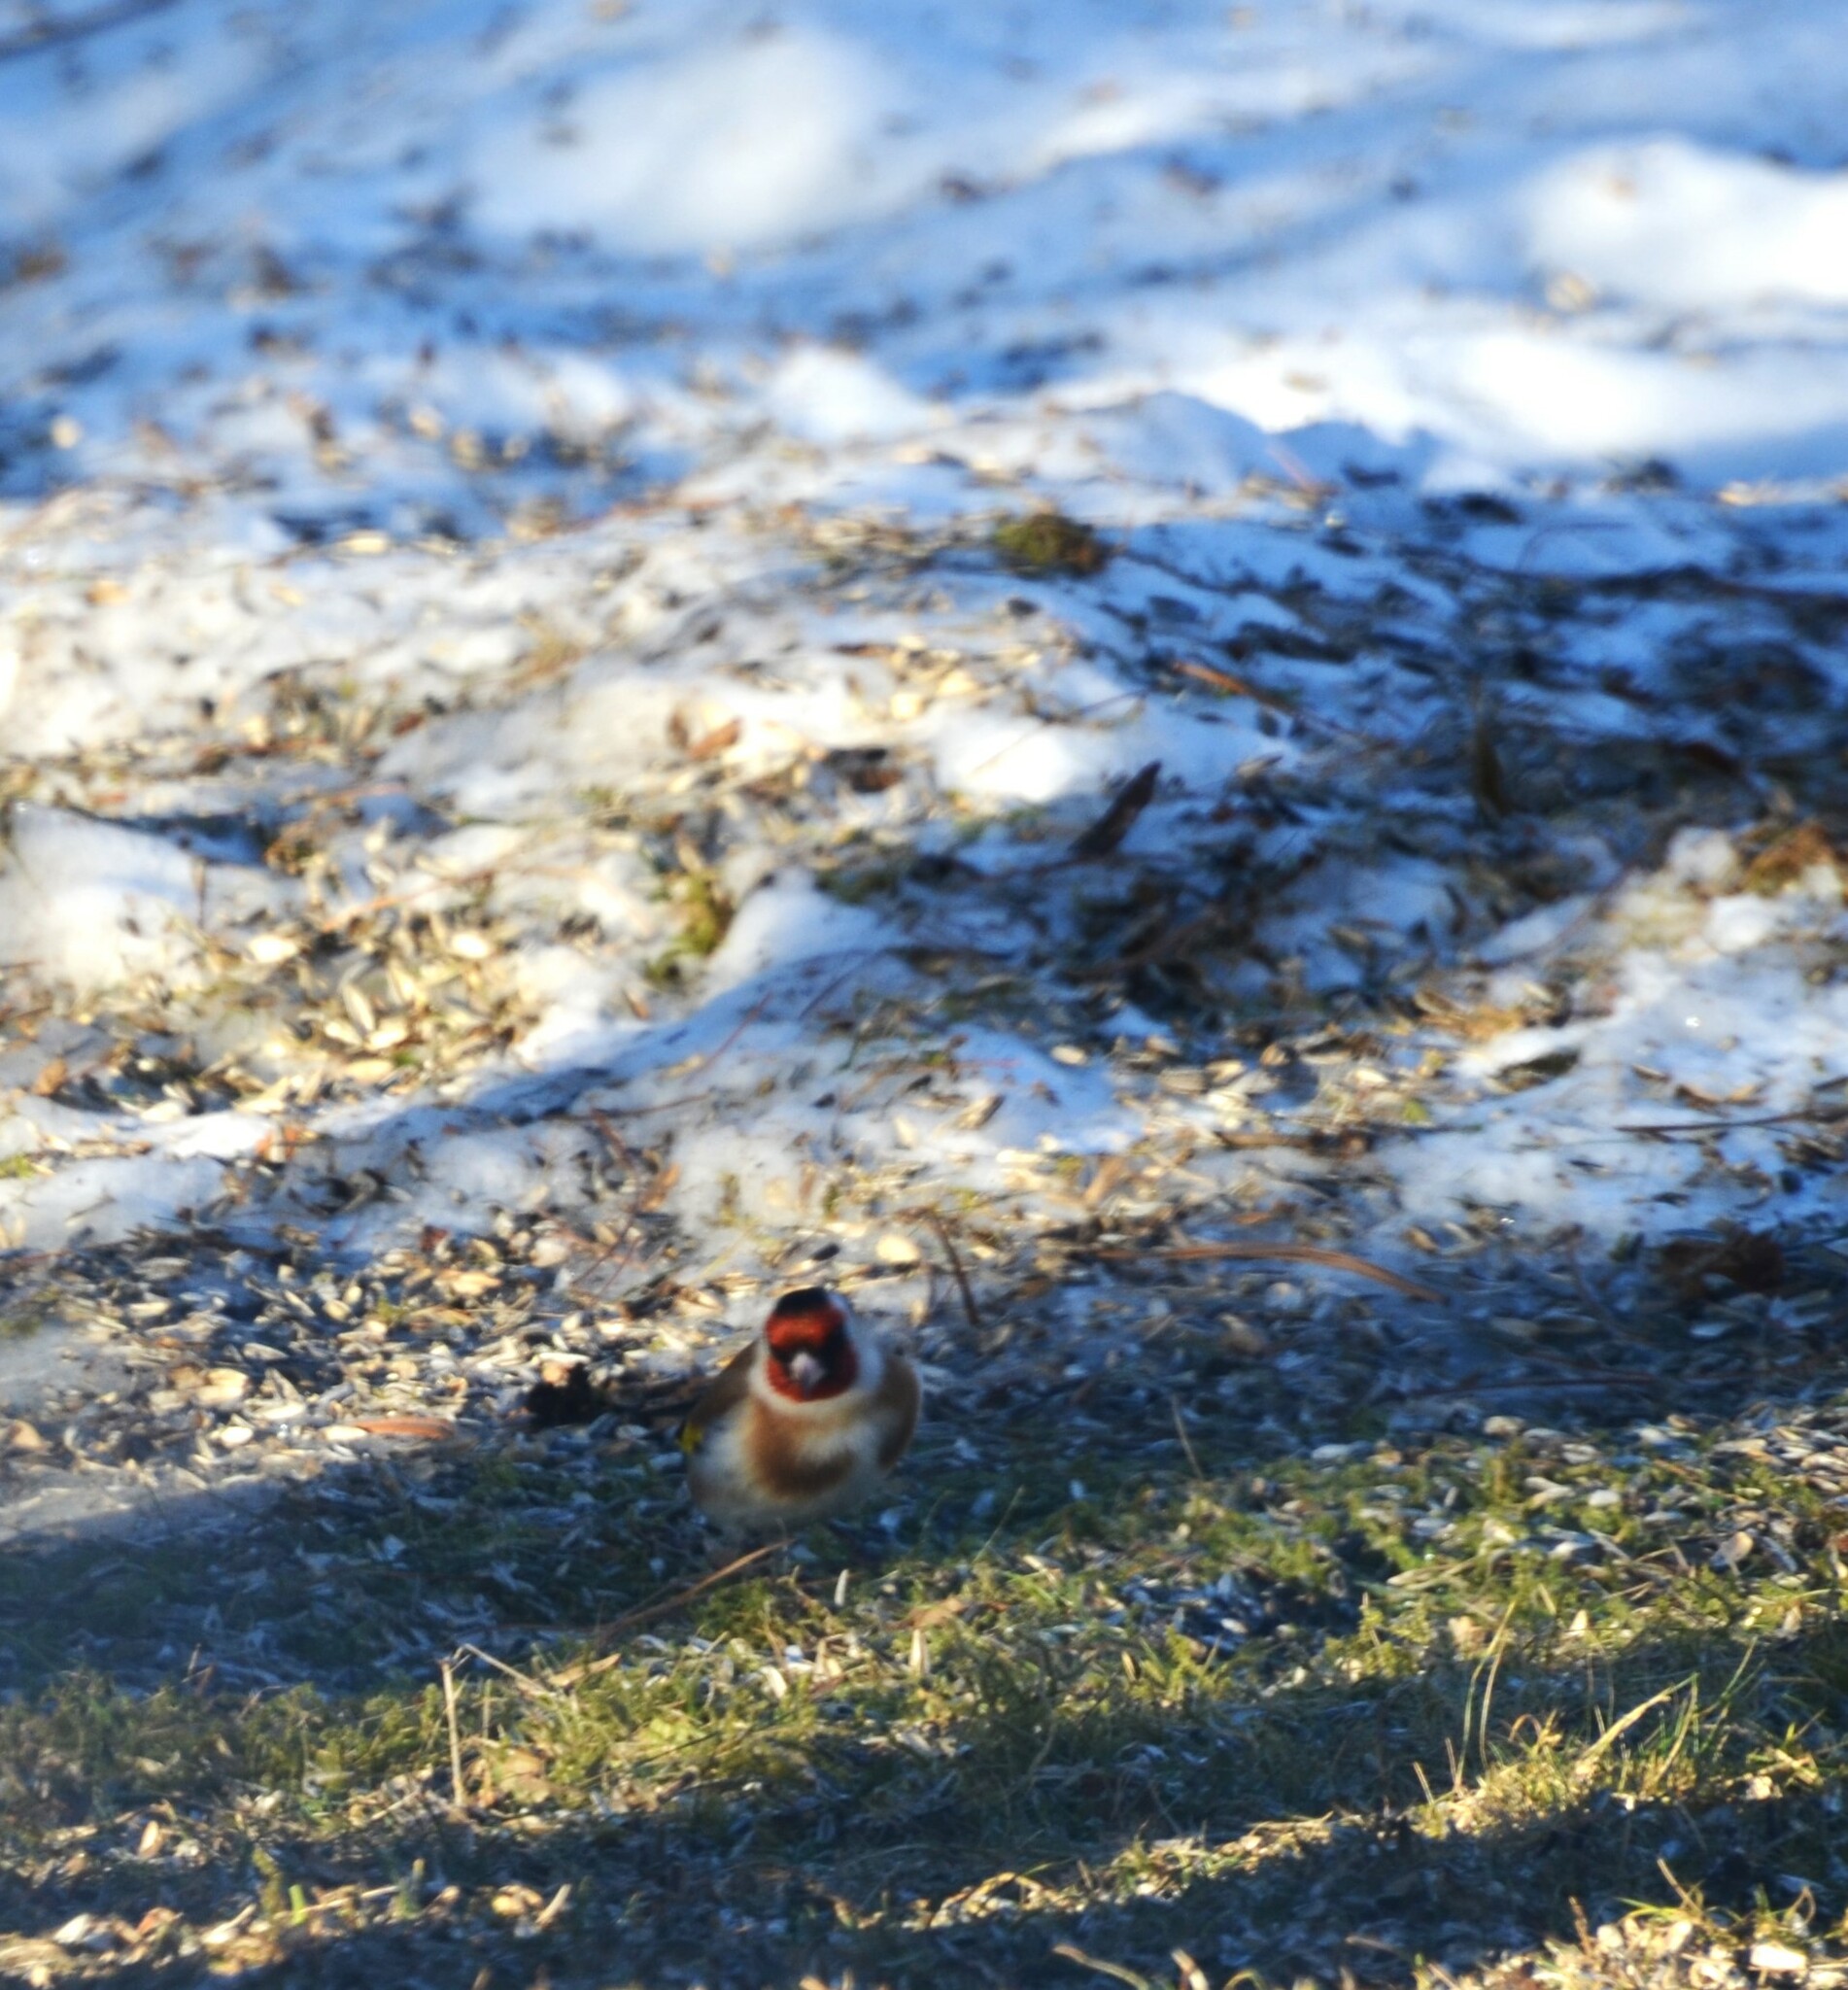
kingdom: Animalia
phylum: Chordata
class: Aves
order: Passeriformes
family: Fringillidae
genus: Carduelis
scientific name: Carduelis carduelis
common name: European goldfinch
